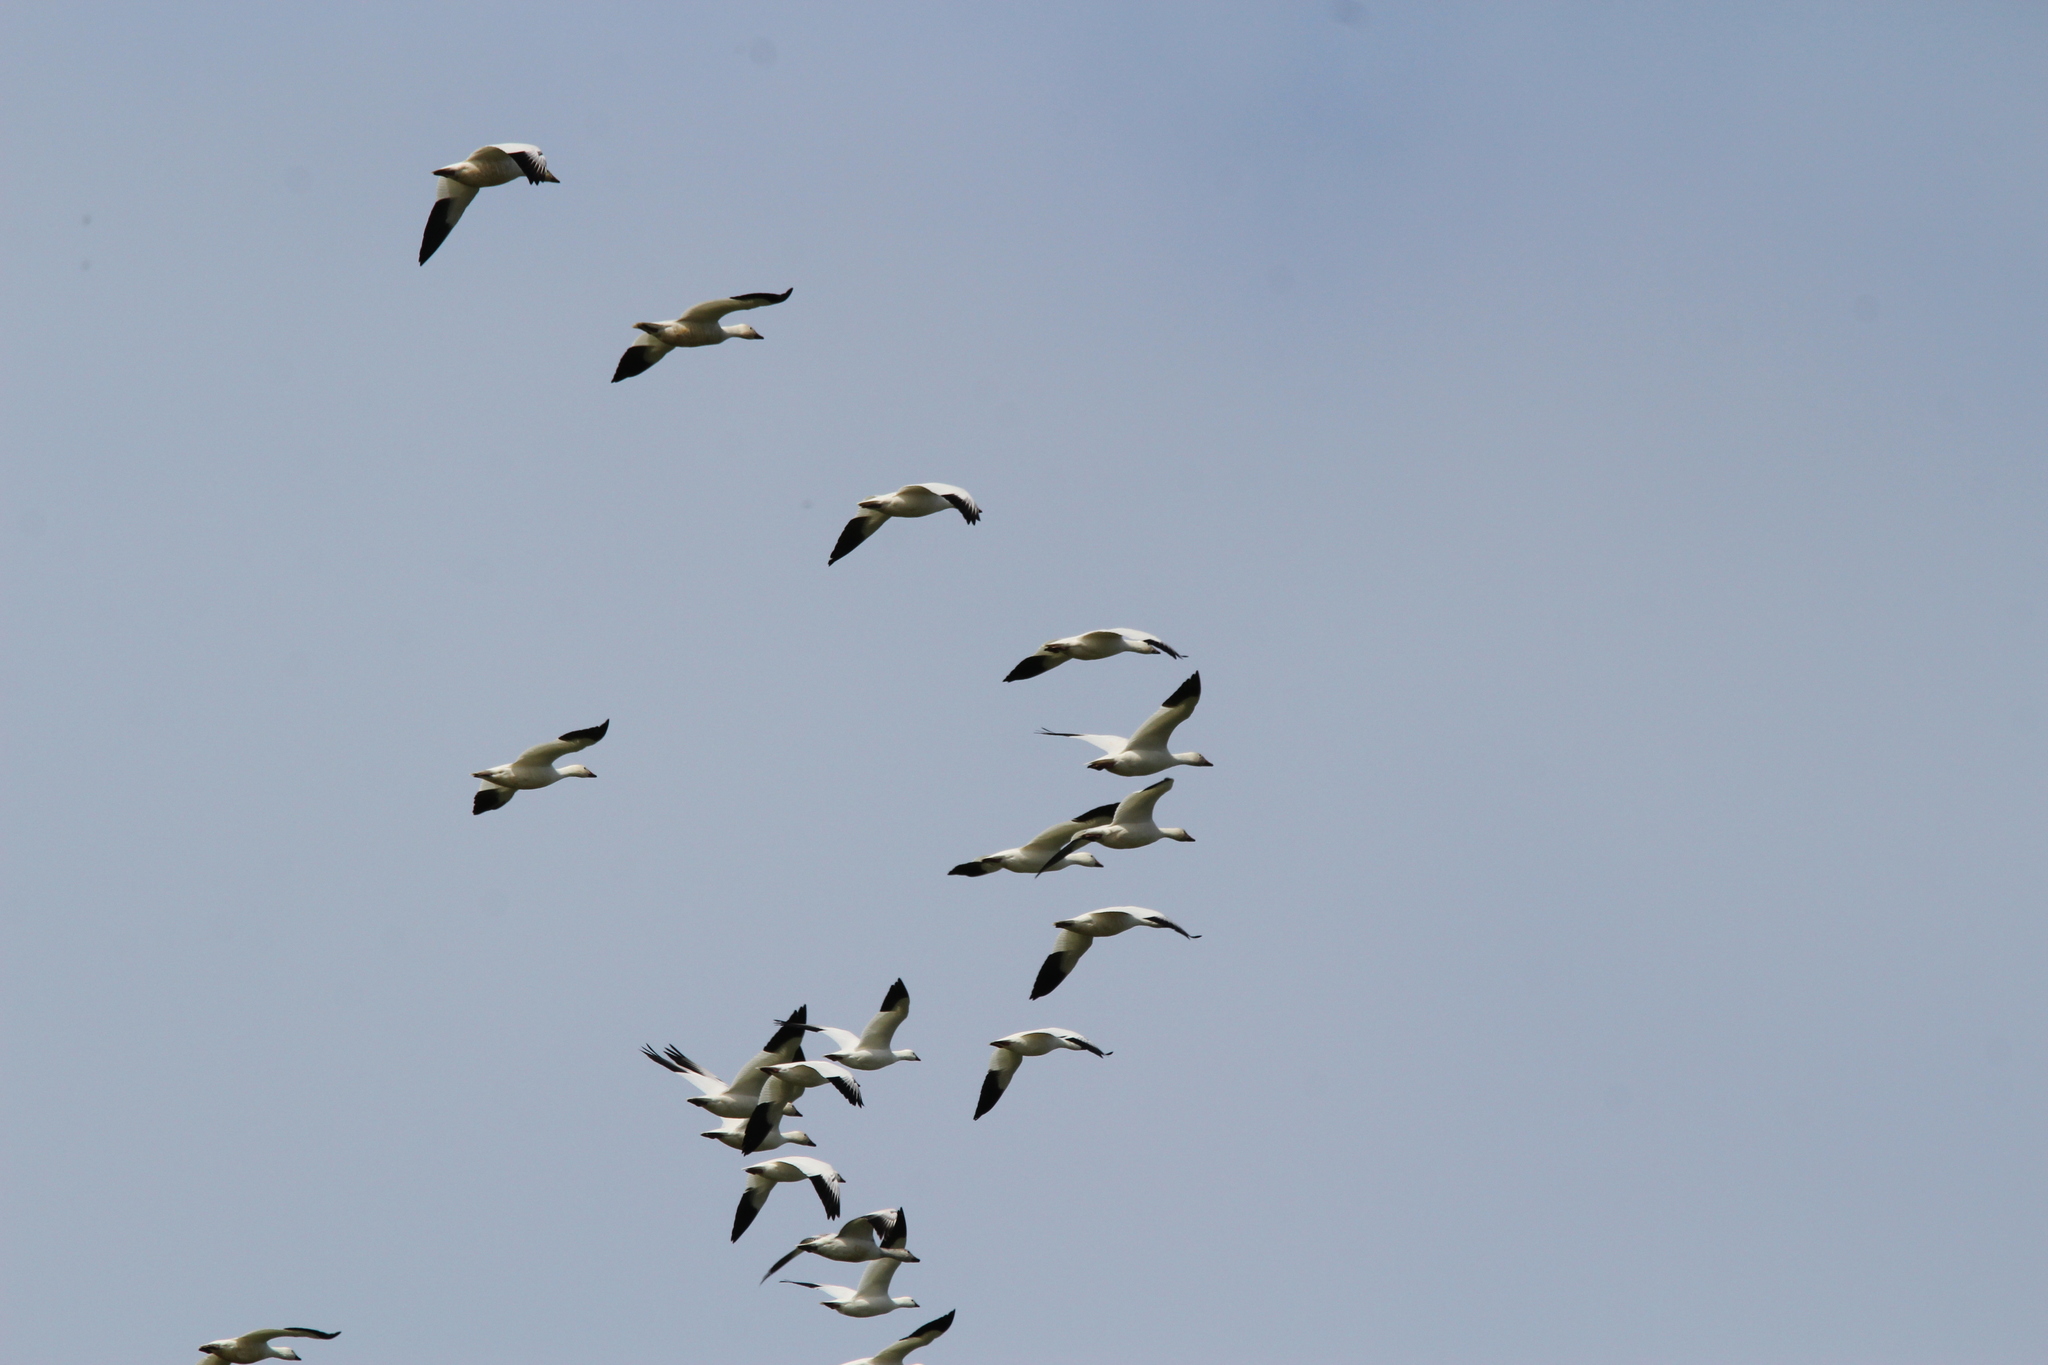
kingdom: Animalia
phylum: Chordata
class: Aves
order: Anseriformes
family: Anatidae
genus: Anser
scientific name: Anser caerulescens
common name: Snow goose
